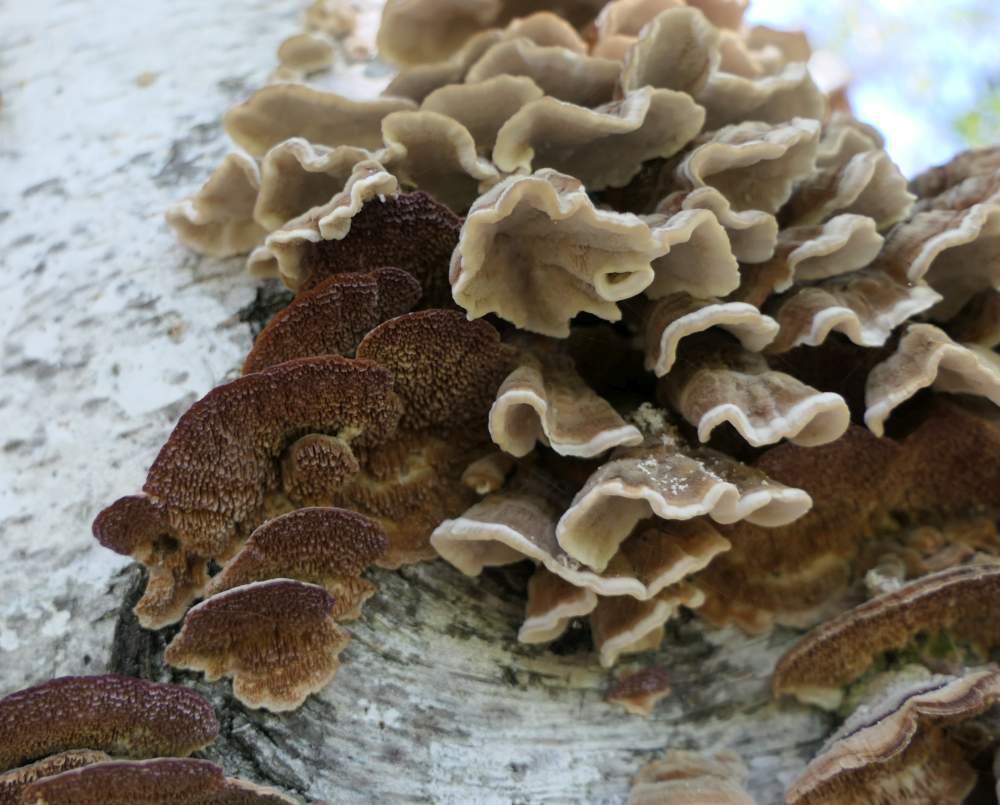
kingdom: Fungi
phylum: Basidiomycota
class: Agaricomycetes
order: Hymenochaetales
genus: Trichaptum
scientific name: Trichaptum biforme
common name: Violet-toothed polypore
